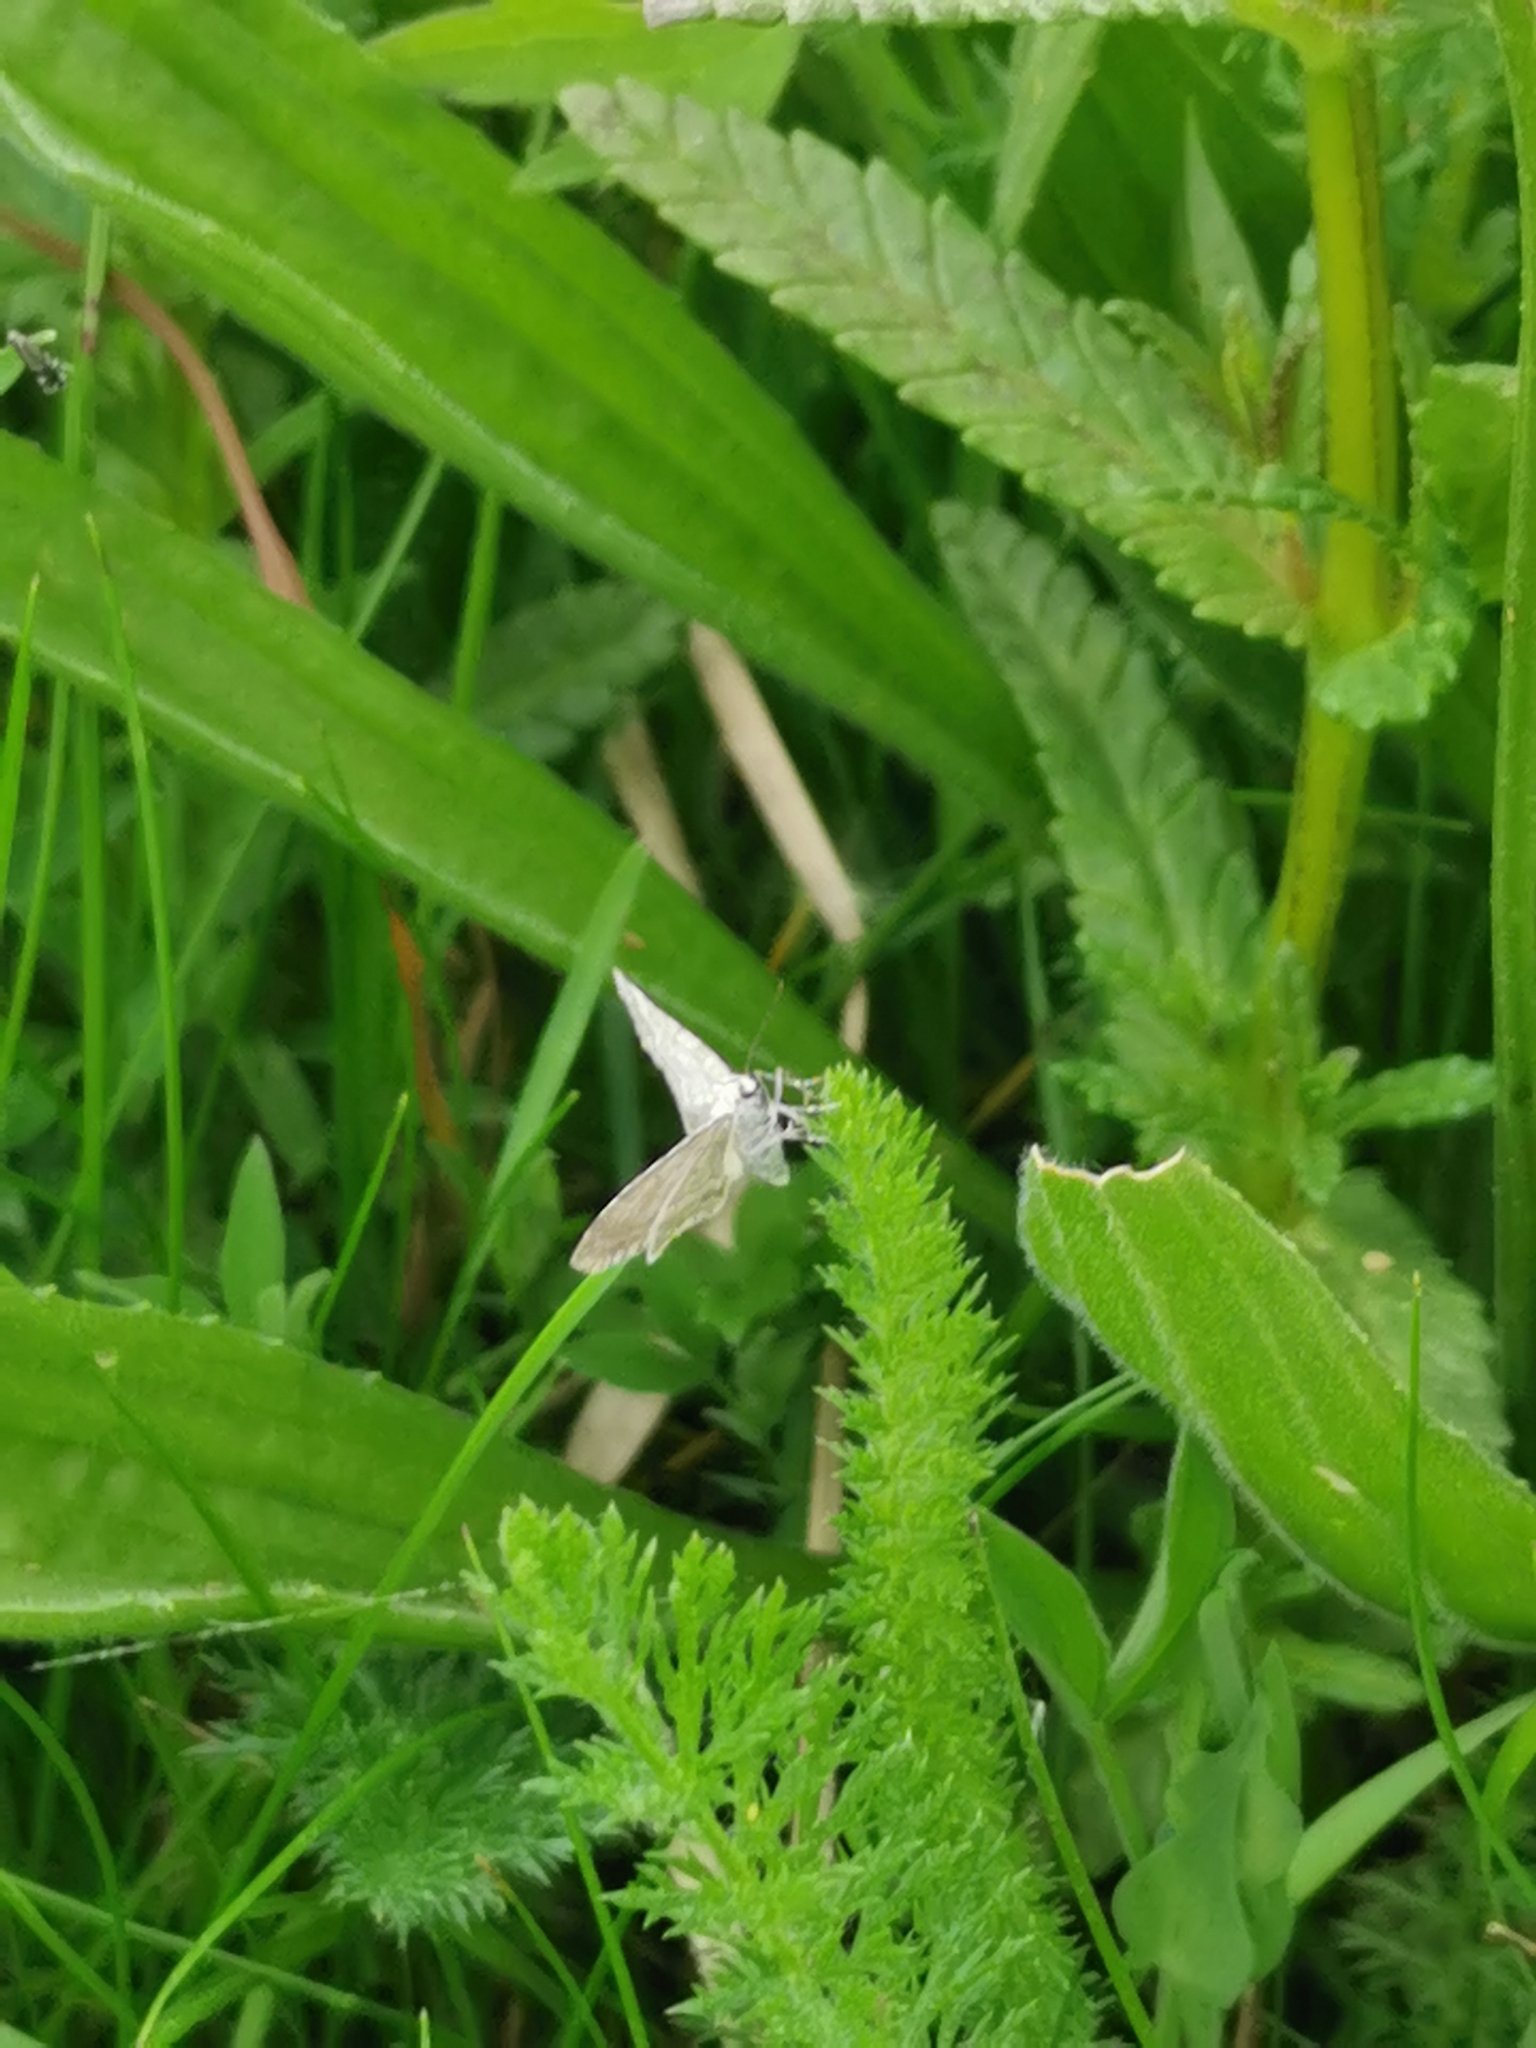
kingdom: Animalia
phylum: Arthropoda
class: Insecta
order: Lepidoptera
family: Geometridae
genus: Perizoma
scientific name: Perizoma albulata
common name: Grass rivulet
